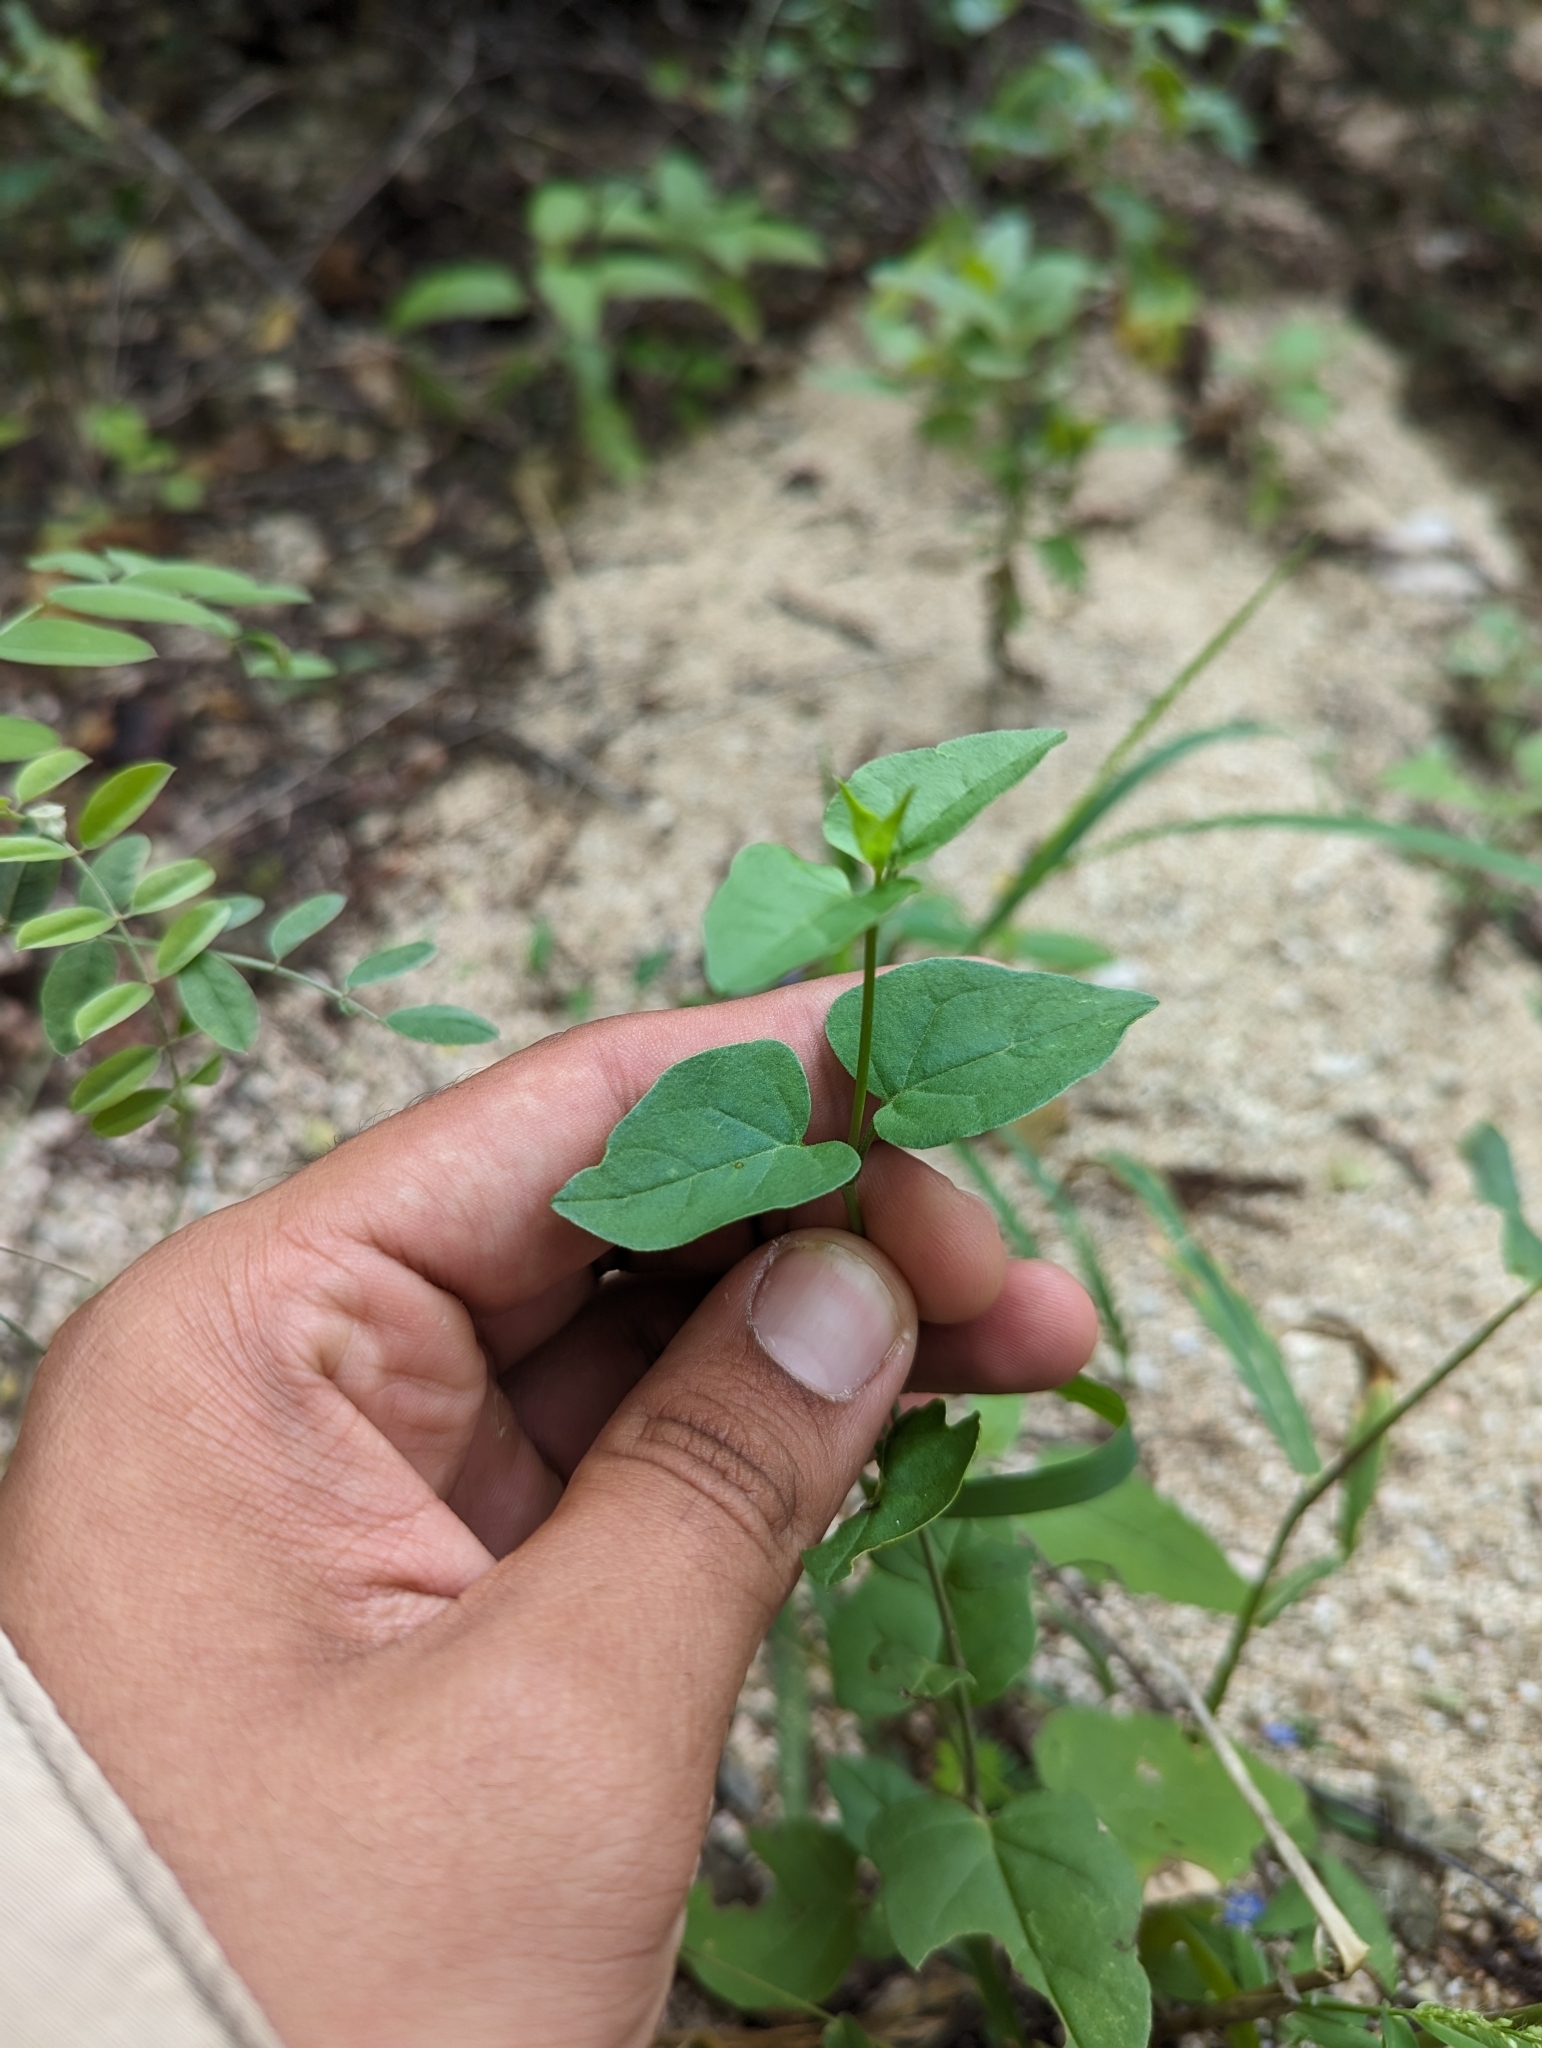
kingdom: Plantae
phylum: Tracheophyta
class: Magnoliopsida
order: Caryophyllales
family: Nyctaginaceae
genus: Commicarpus
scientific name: Commicarpus brandegeei
